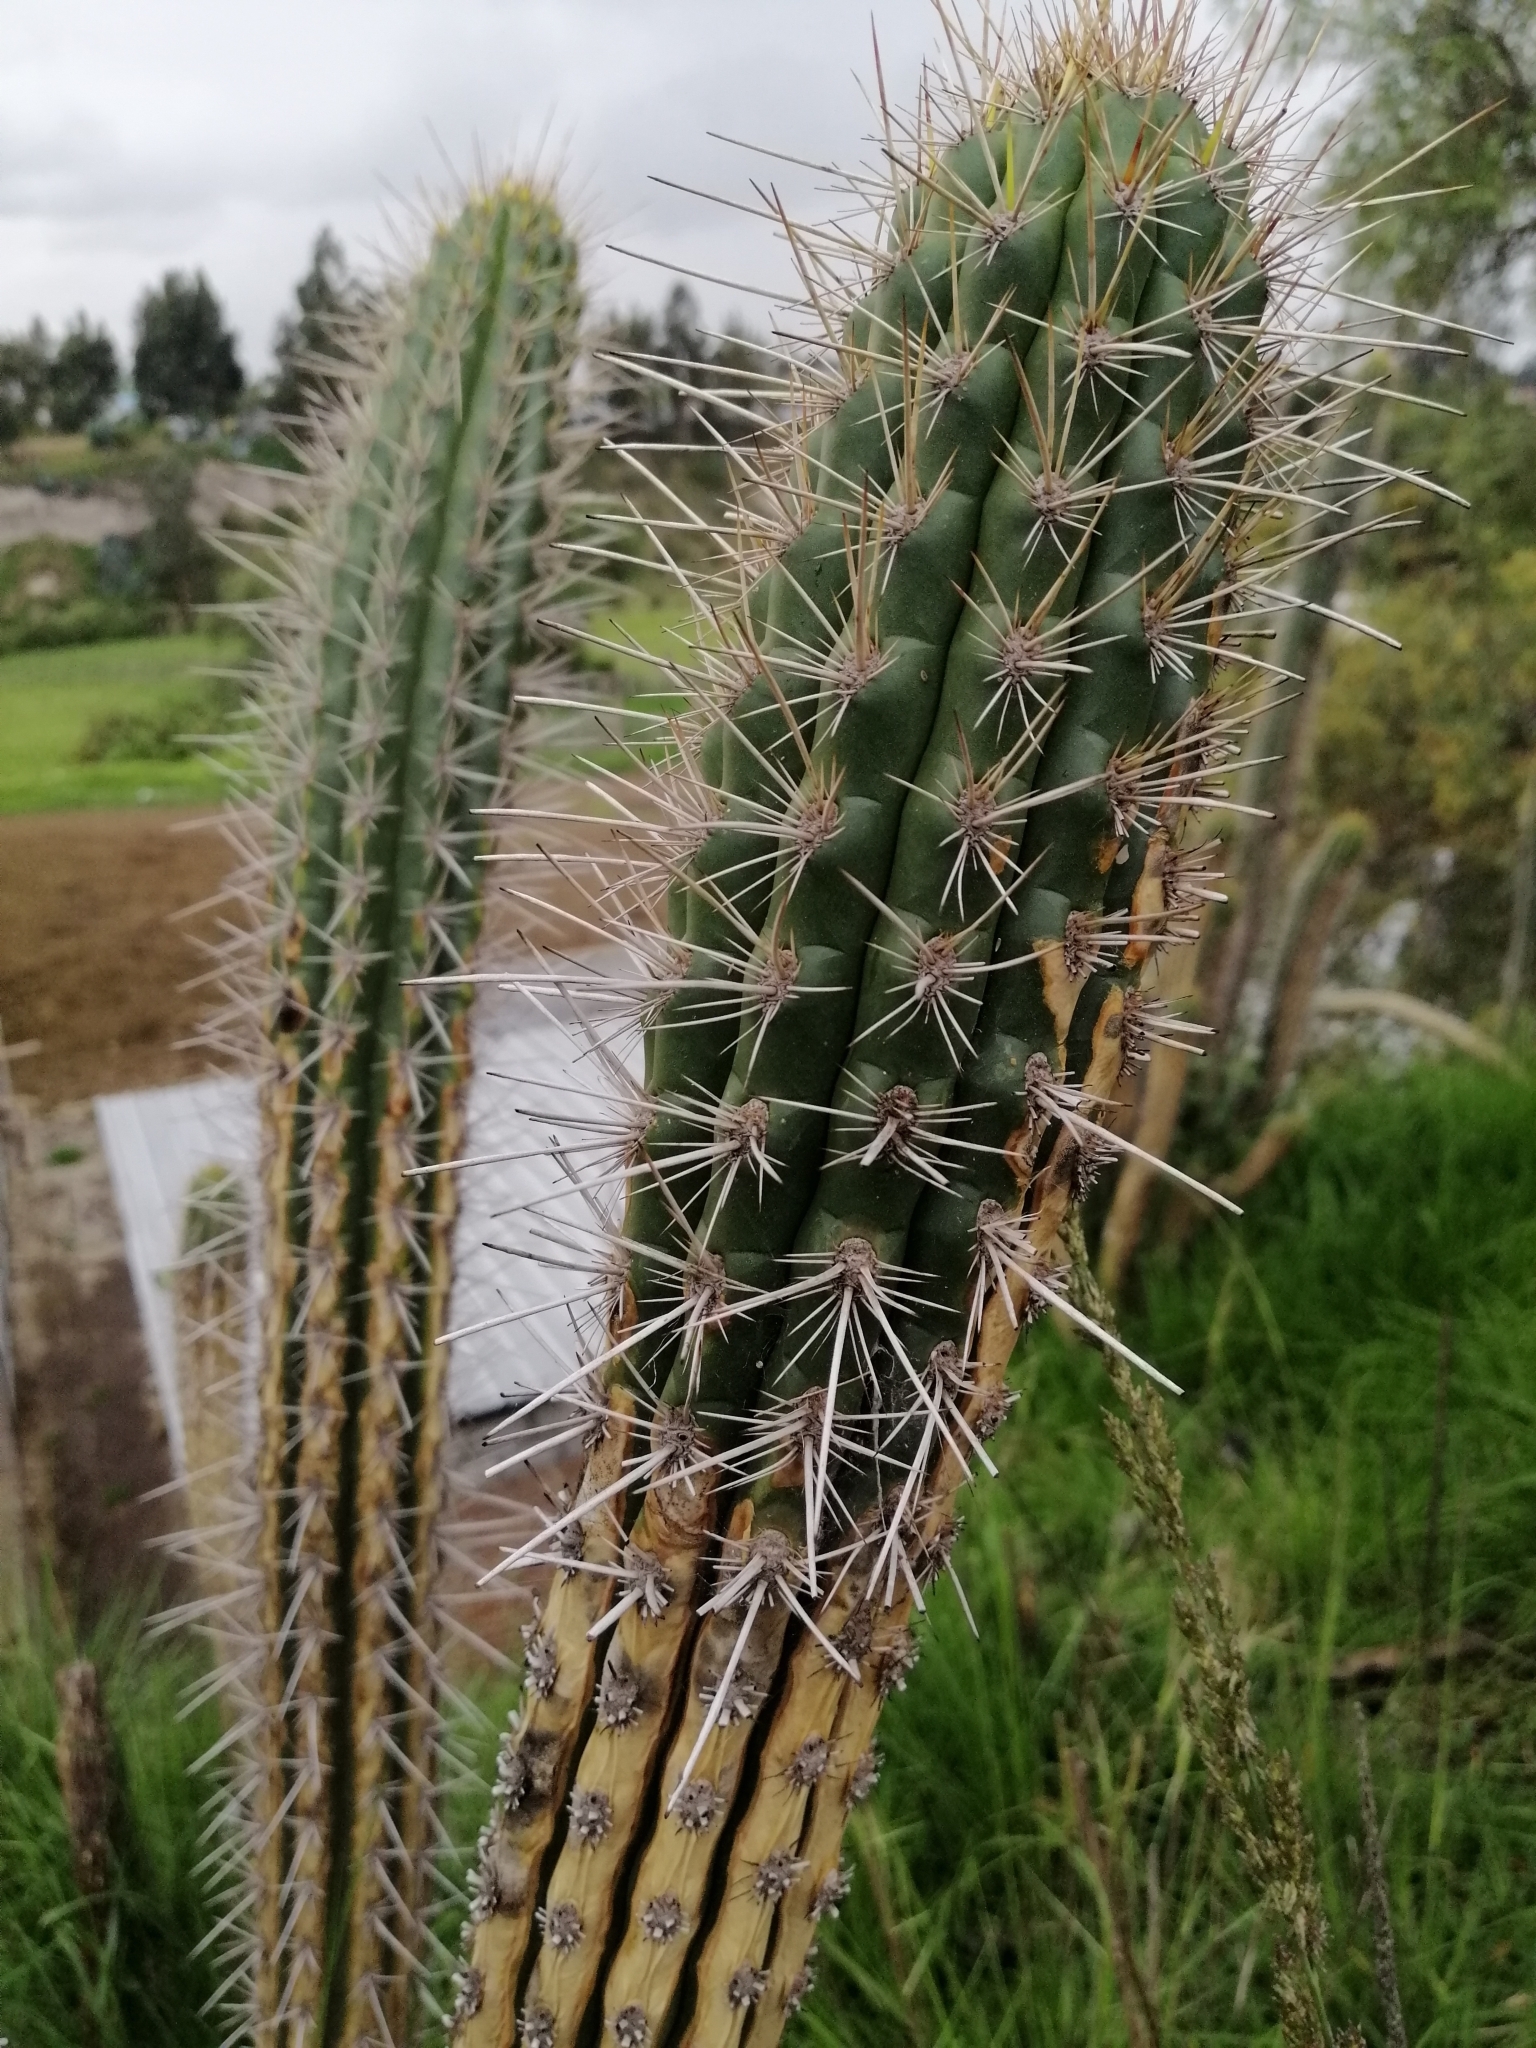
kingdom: Plantae
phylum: Tracheophyta
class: Magnoliopsida
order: Caryophyllales
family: Cactaceae
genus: Borzicactus
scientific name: Borzicactus sepium
